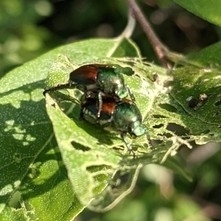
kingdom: Animalia
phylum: Arthropoda
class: Insecta
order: Coleoptera
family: Scarabaeidae
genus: Popillia
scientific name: Popillia japonica
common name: Japanese beetle
